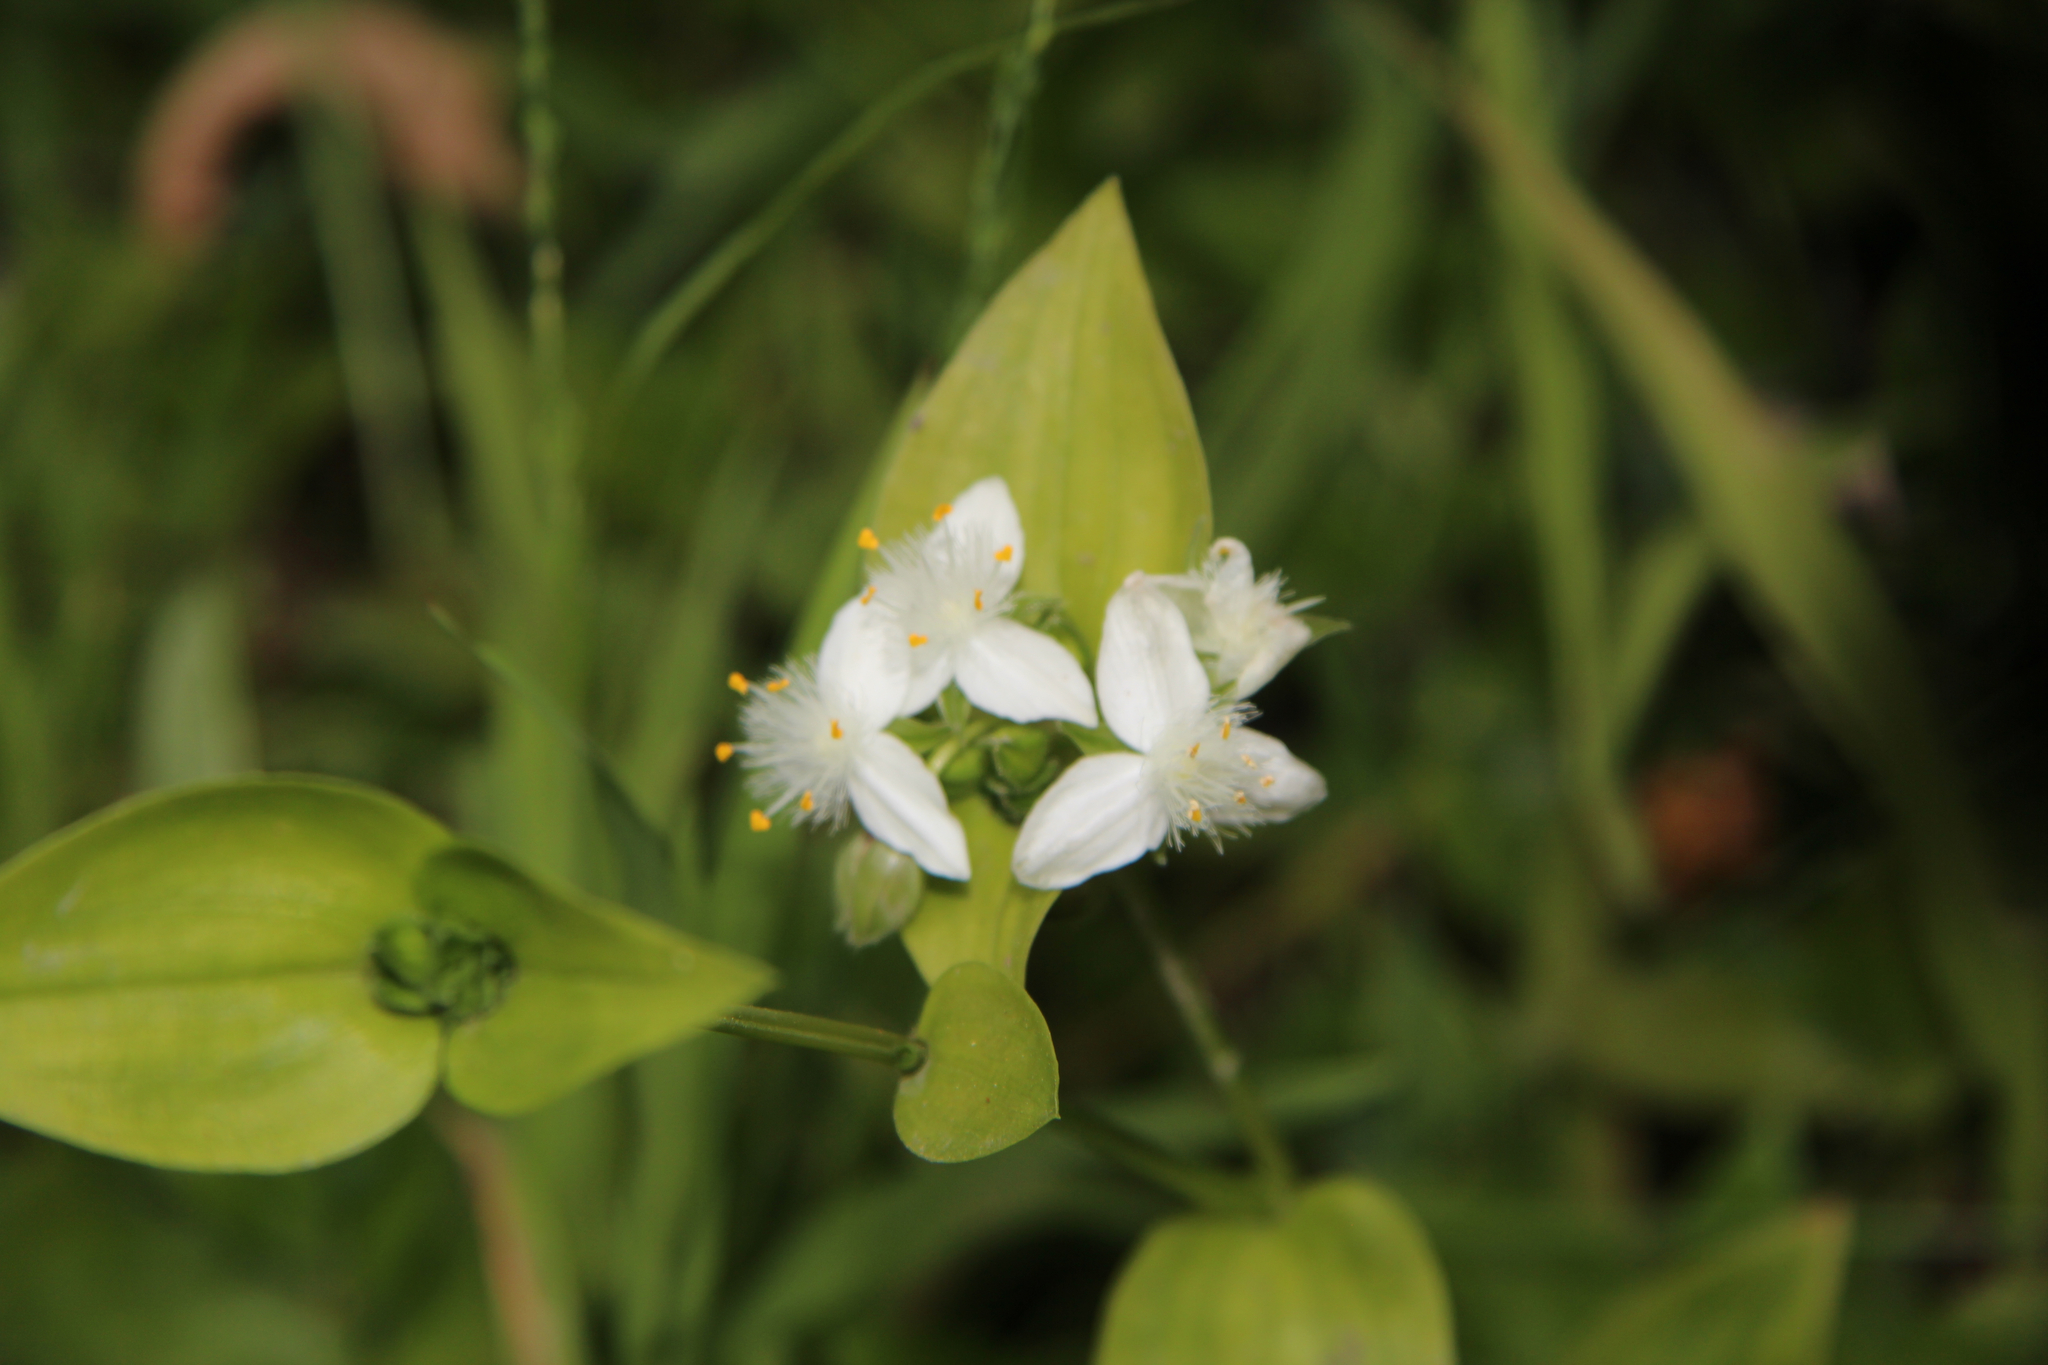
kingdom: Plantae
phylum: Tracheophyta
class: Liliopsida
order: Commelinales
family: Commelinaceae
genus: Tradescantia
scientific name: Tradescantia fluminensis
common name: Wandering-jew
